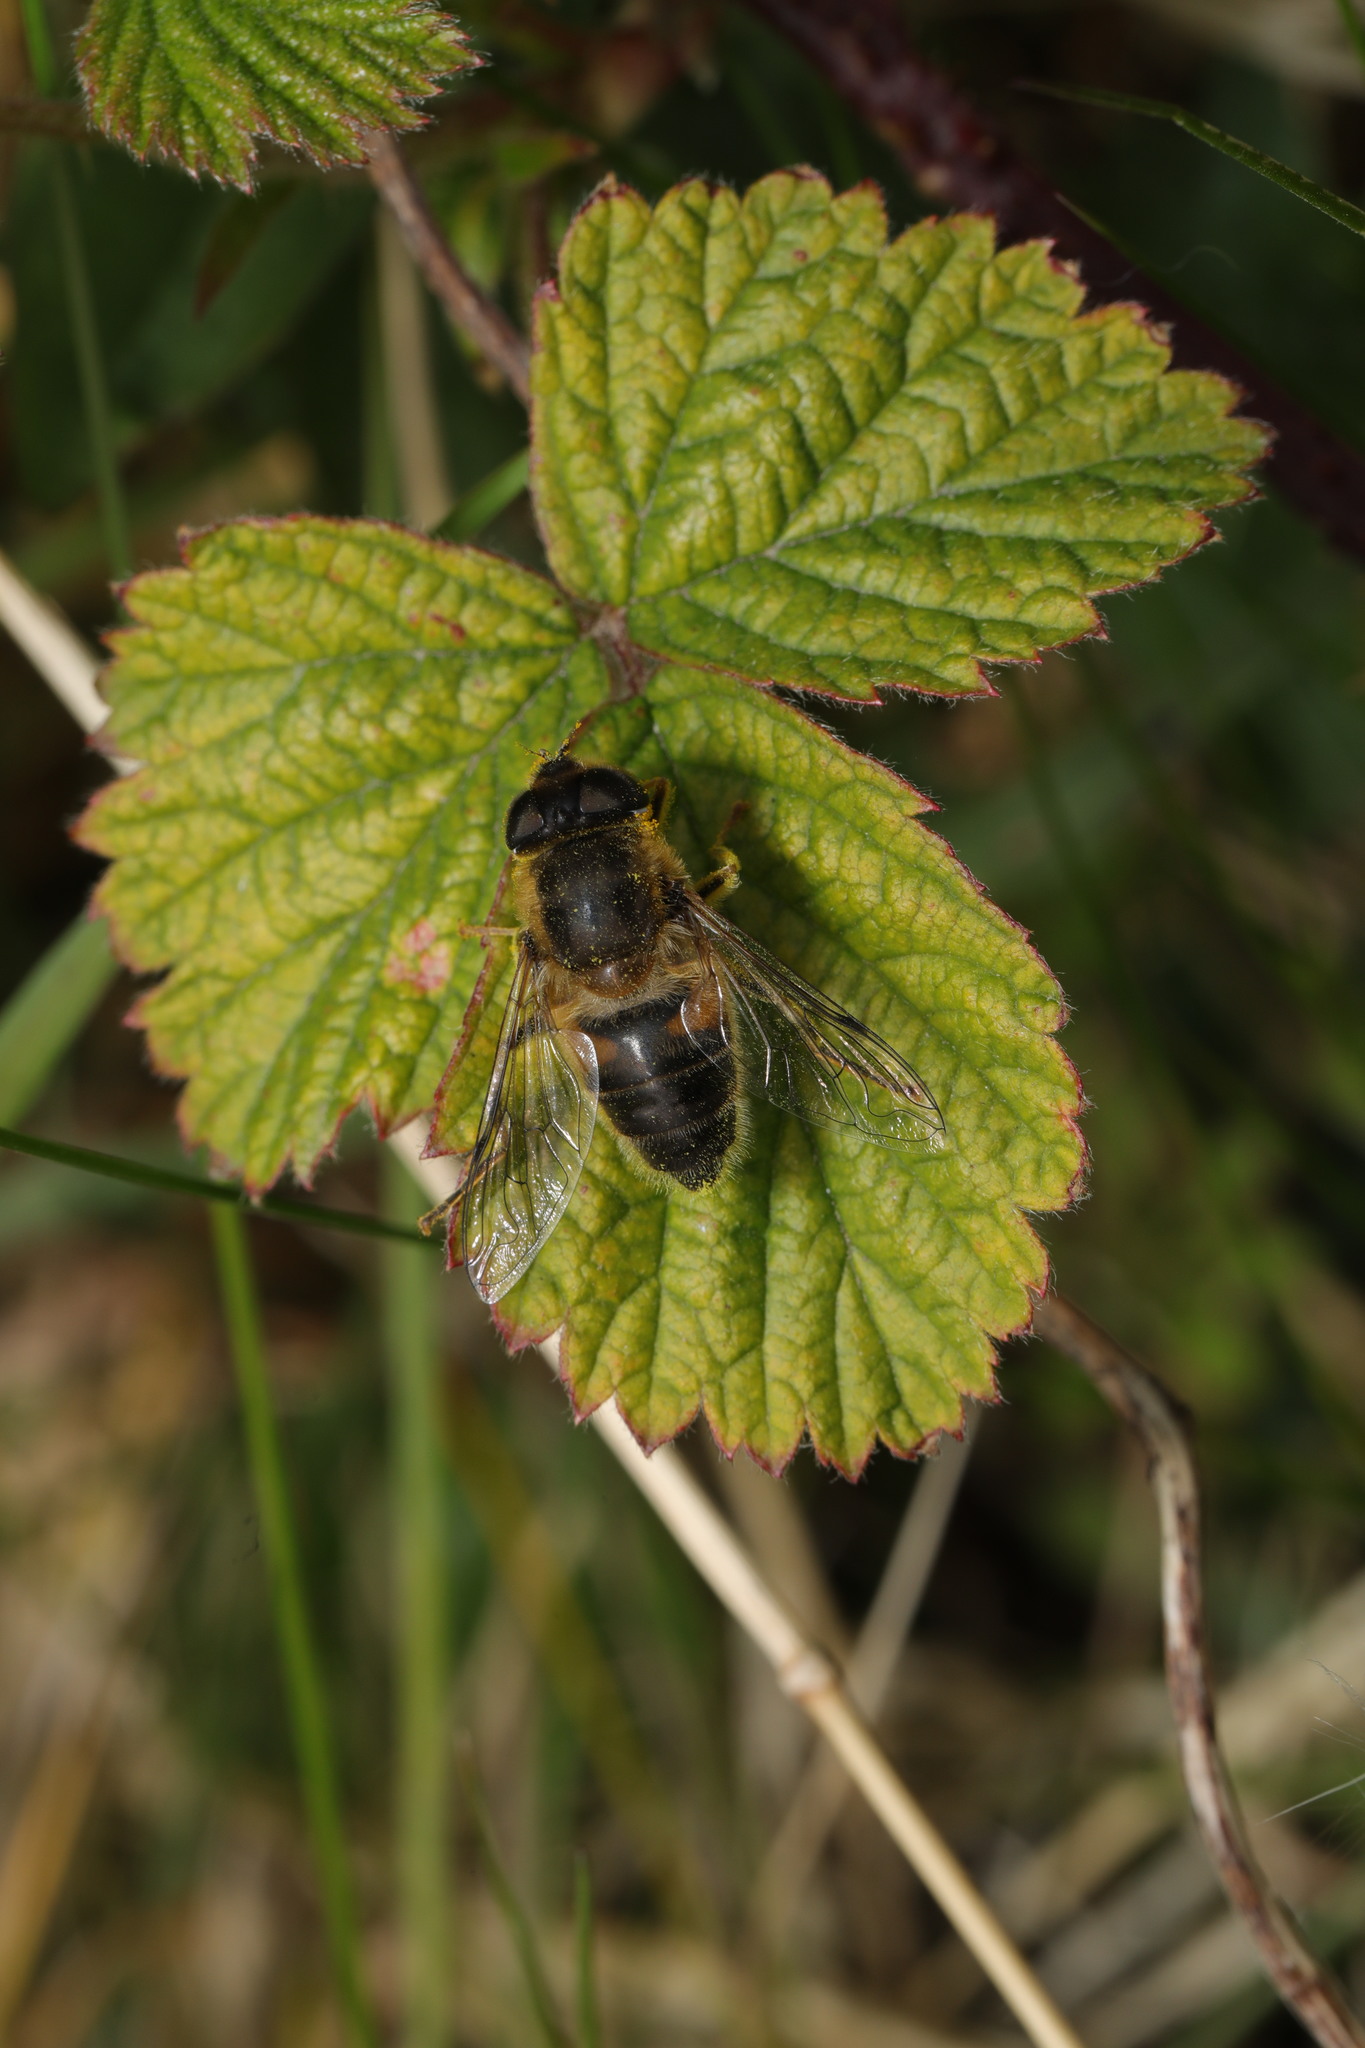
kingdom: Animalia
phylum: Arthropoda
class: Insecta
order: Diptera
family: Syrphidae
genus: Eristalis
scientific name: Eristalis pertinax
